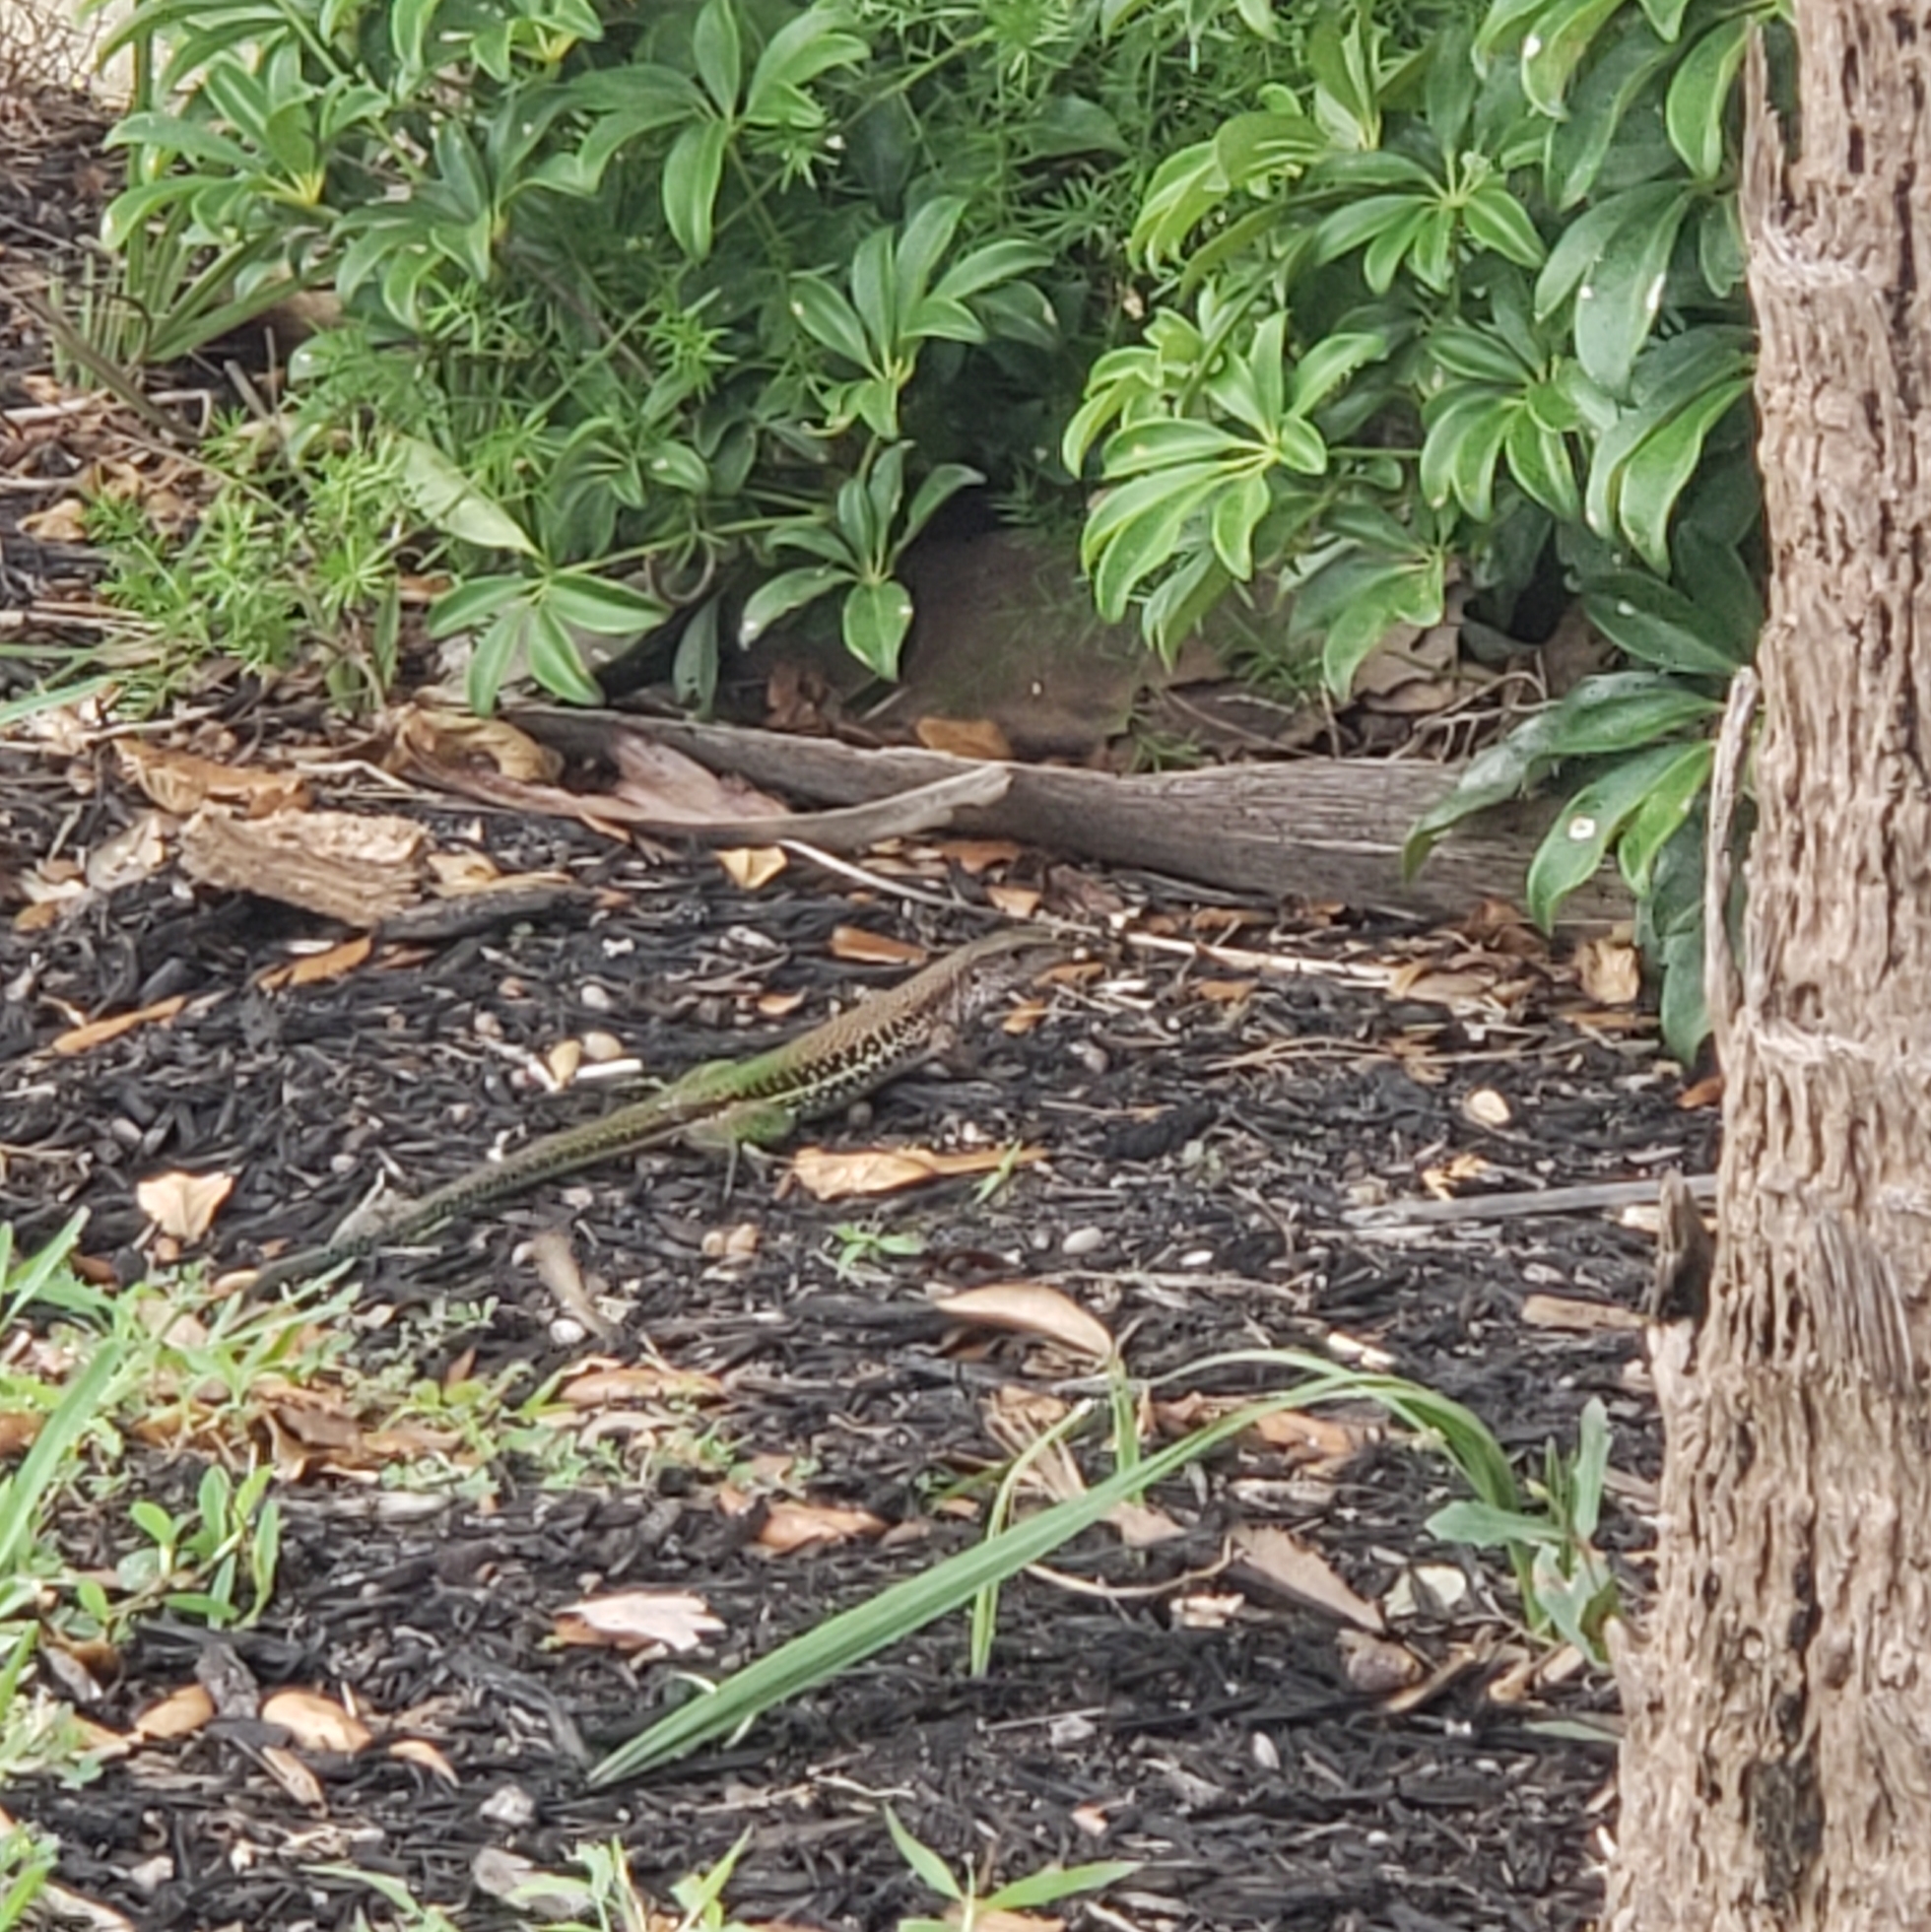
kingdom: Animalia
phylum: Chordata
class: Squamata
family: Teiidae
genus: Ameiva
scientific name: Ameiva ameiva
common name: Giant ameiva
